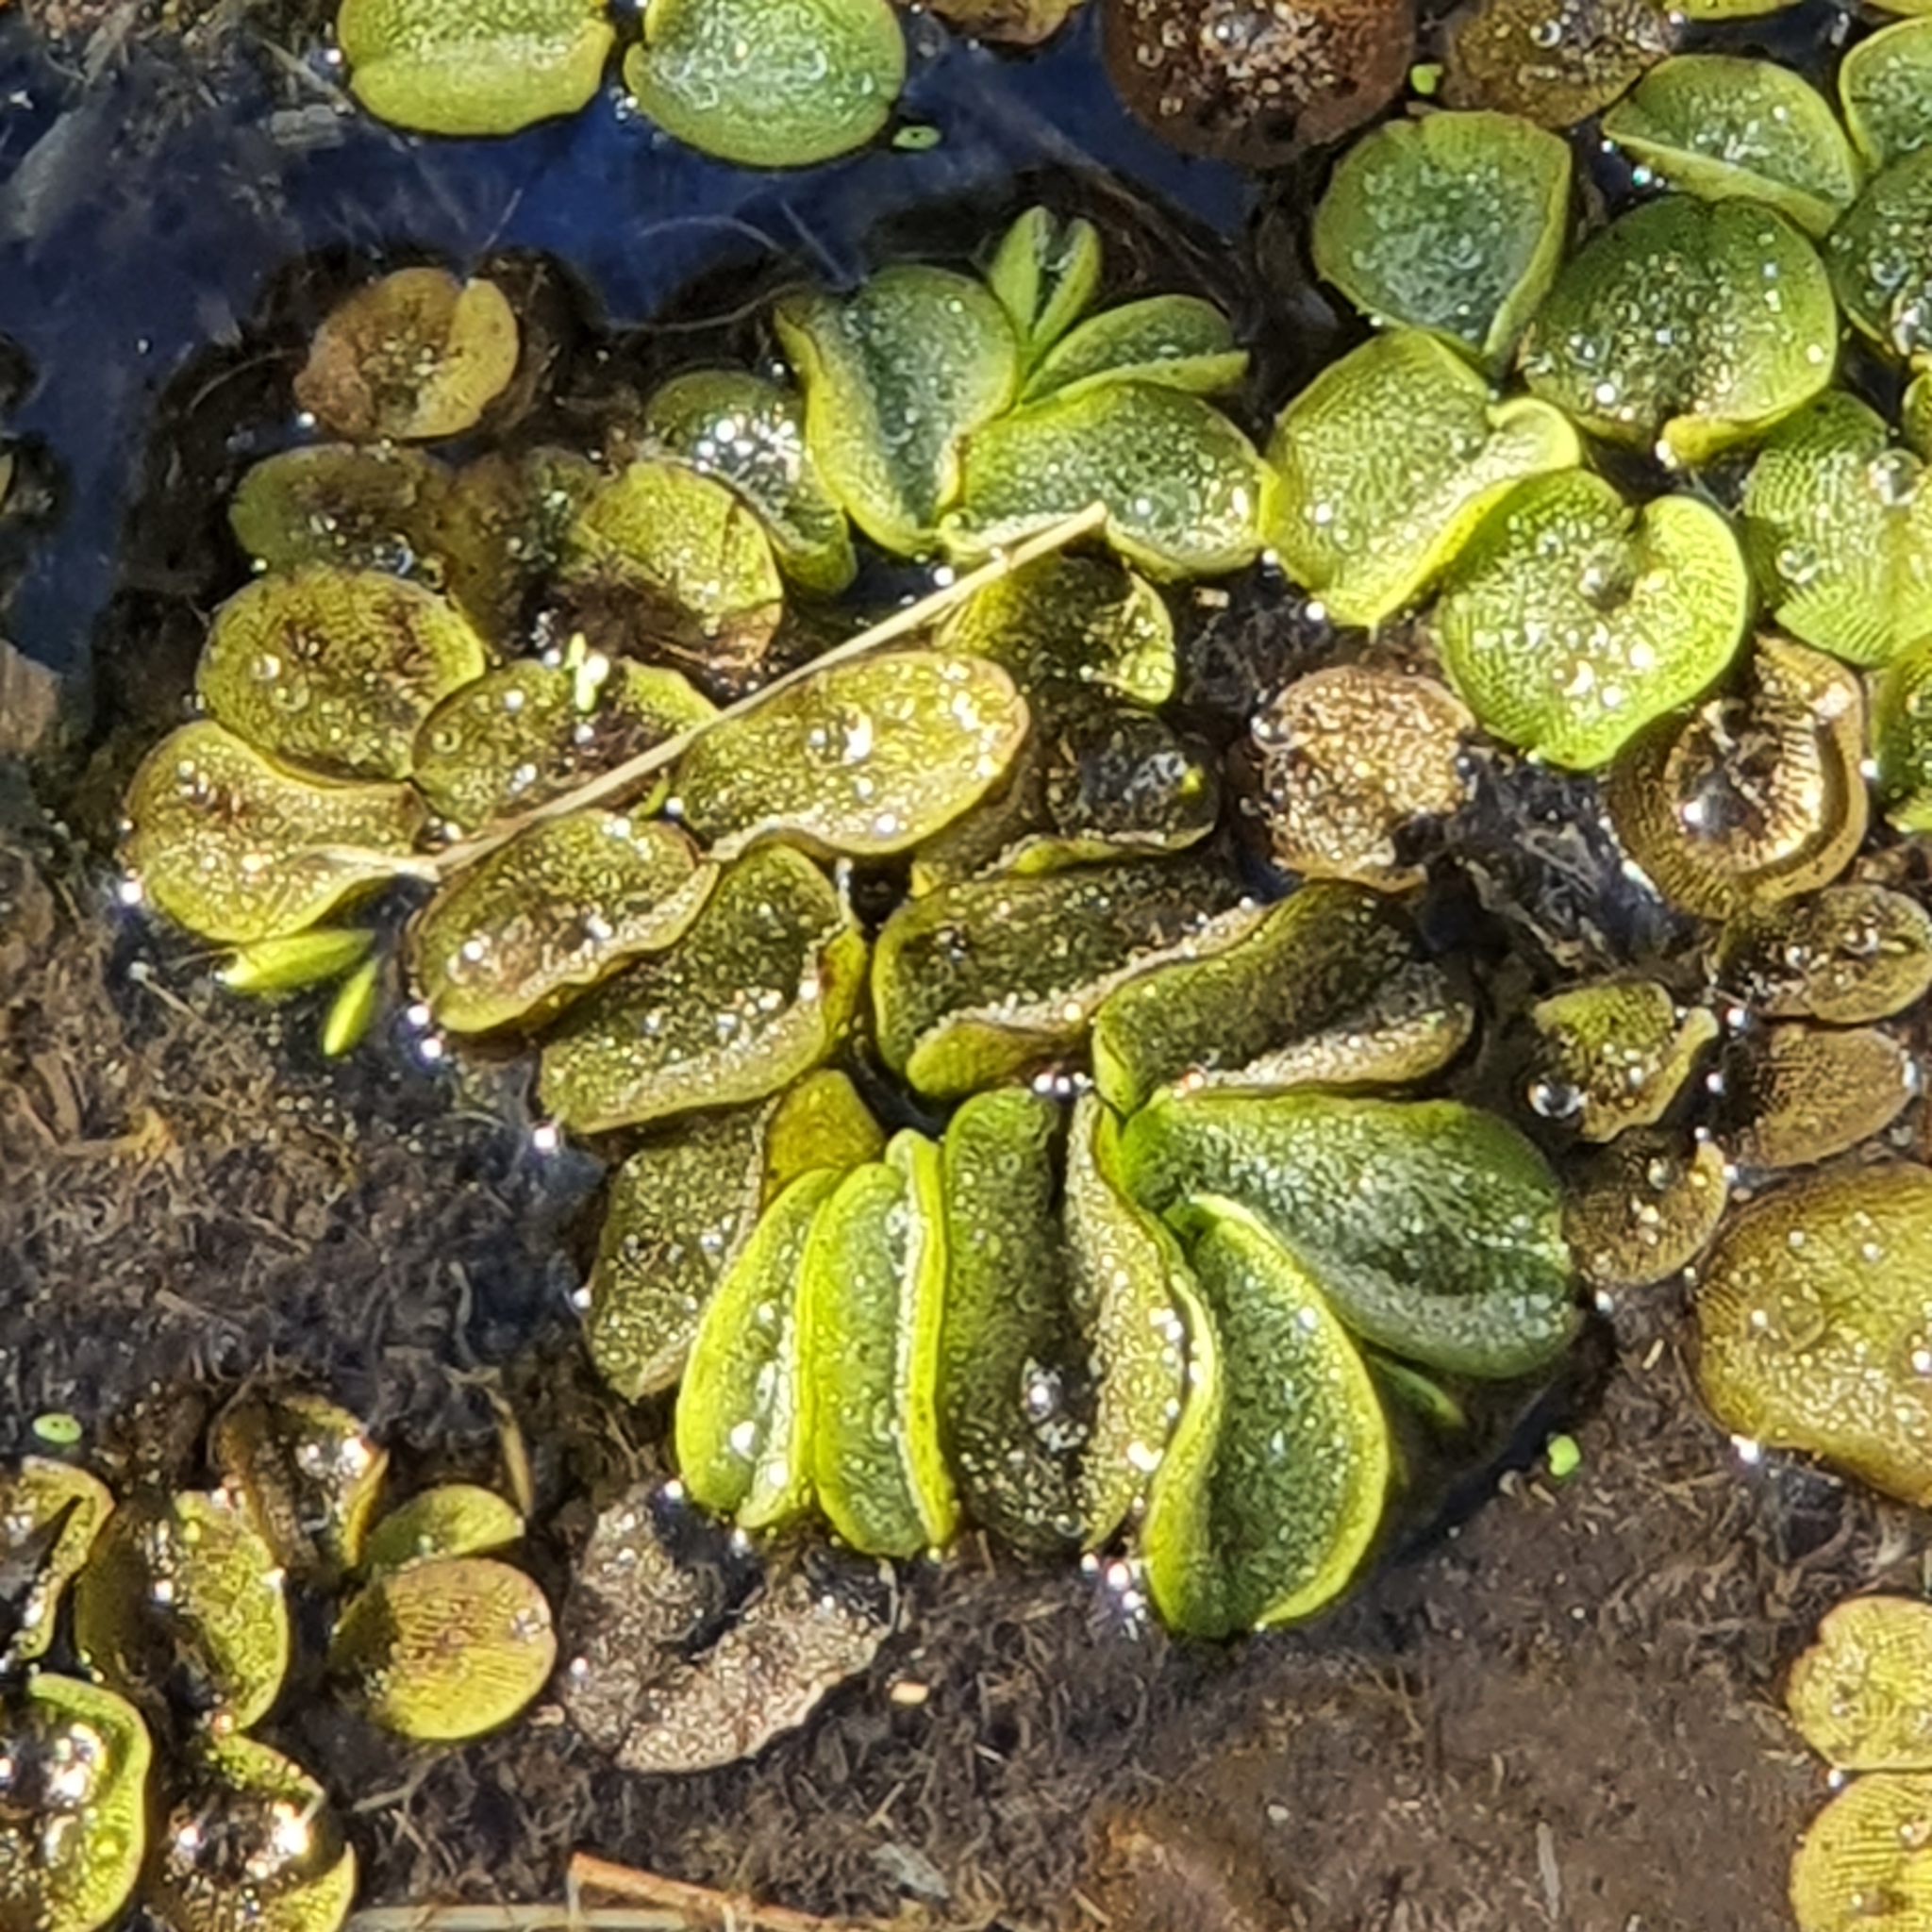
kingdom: Plantae
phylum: Tracheophyta
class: Polypodiopsida
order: Salviniales
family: Salviniaceae
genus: Salvinia
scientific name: Salvinia molesta
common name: Kariba weed
